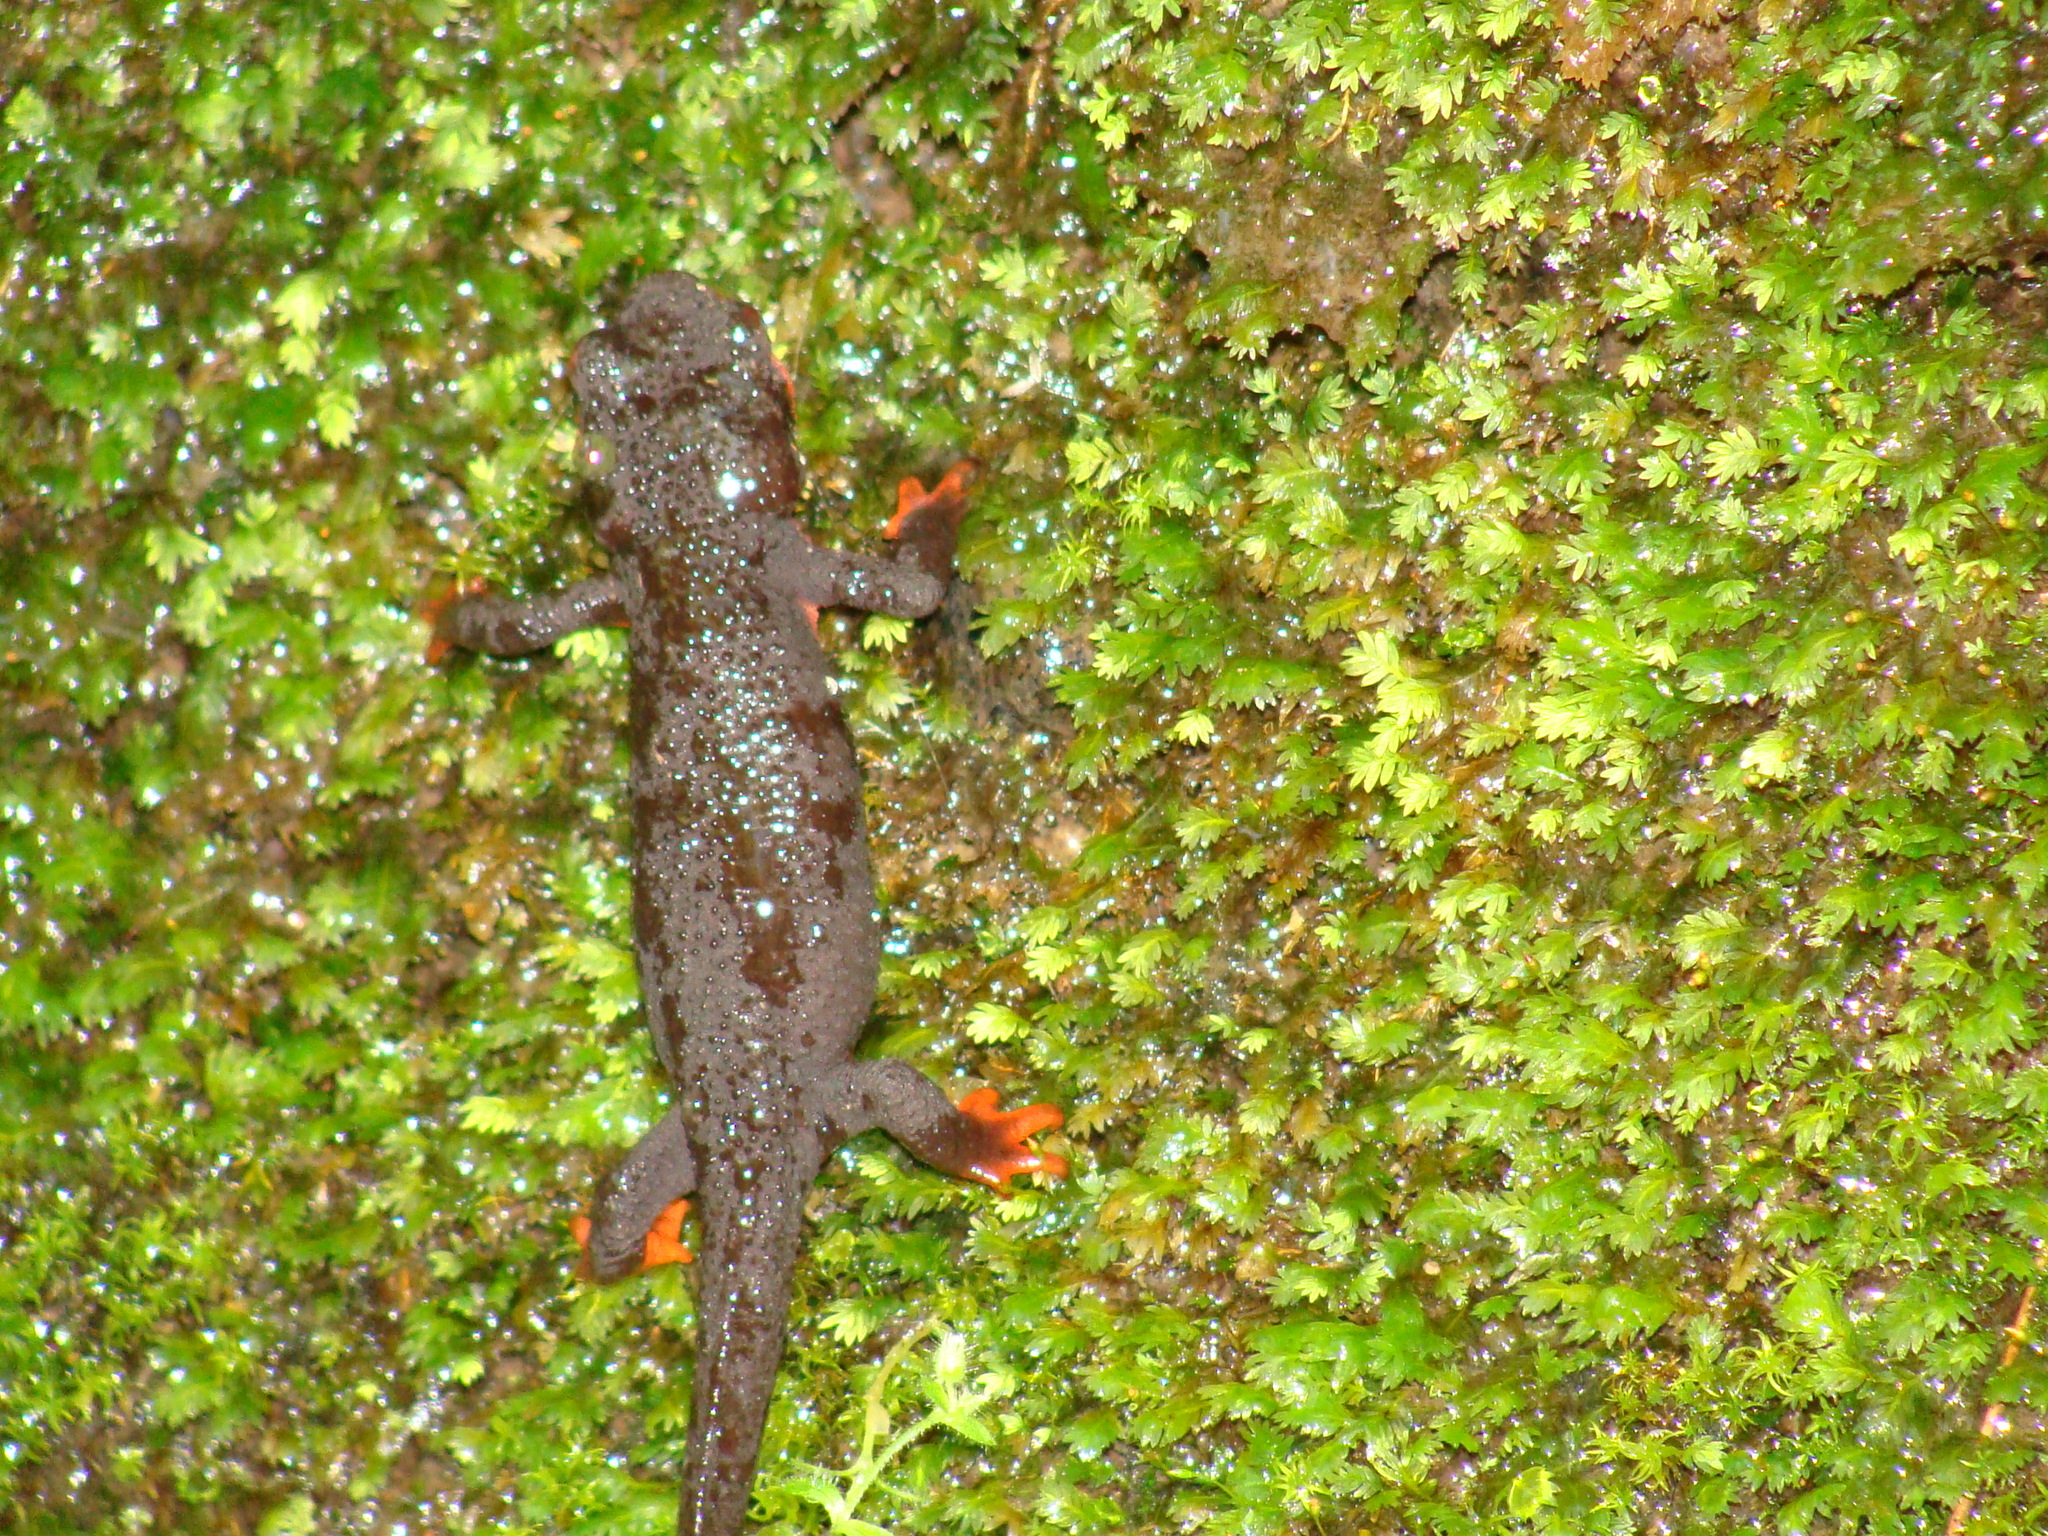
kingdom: Animalia
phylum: Chordata
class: Amphibia
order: Caudata
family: Salamandridae
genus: Taricha
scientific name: Taricha
